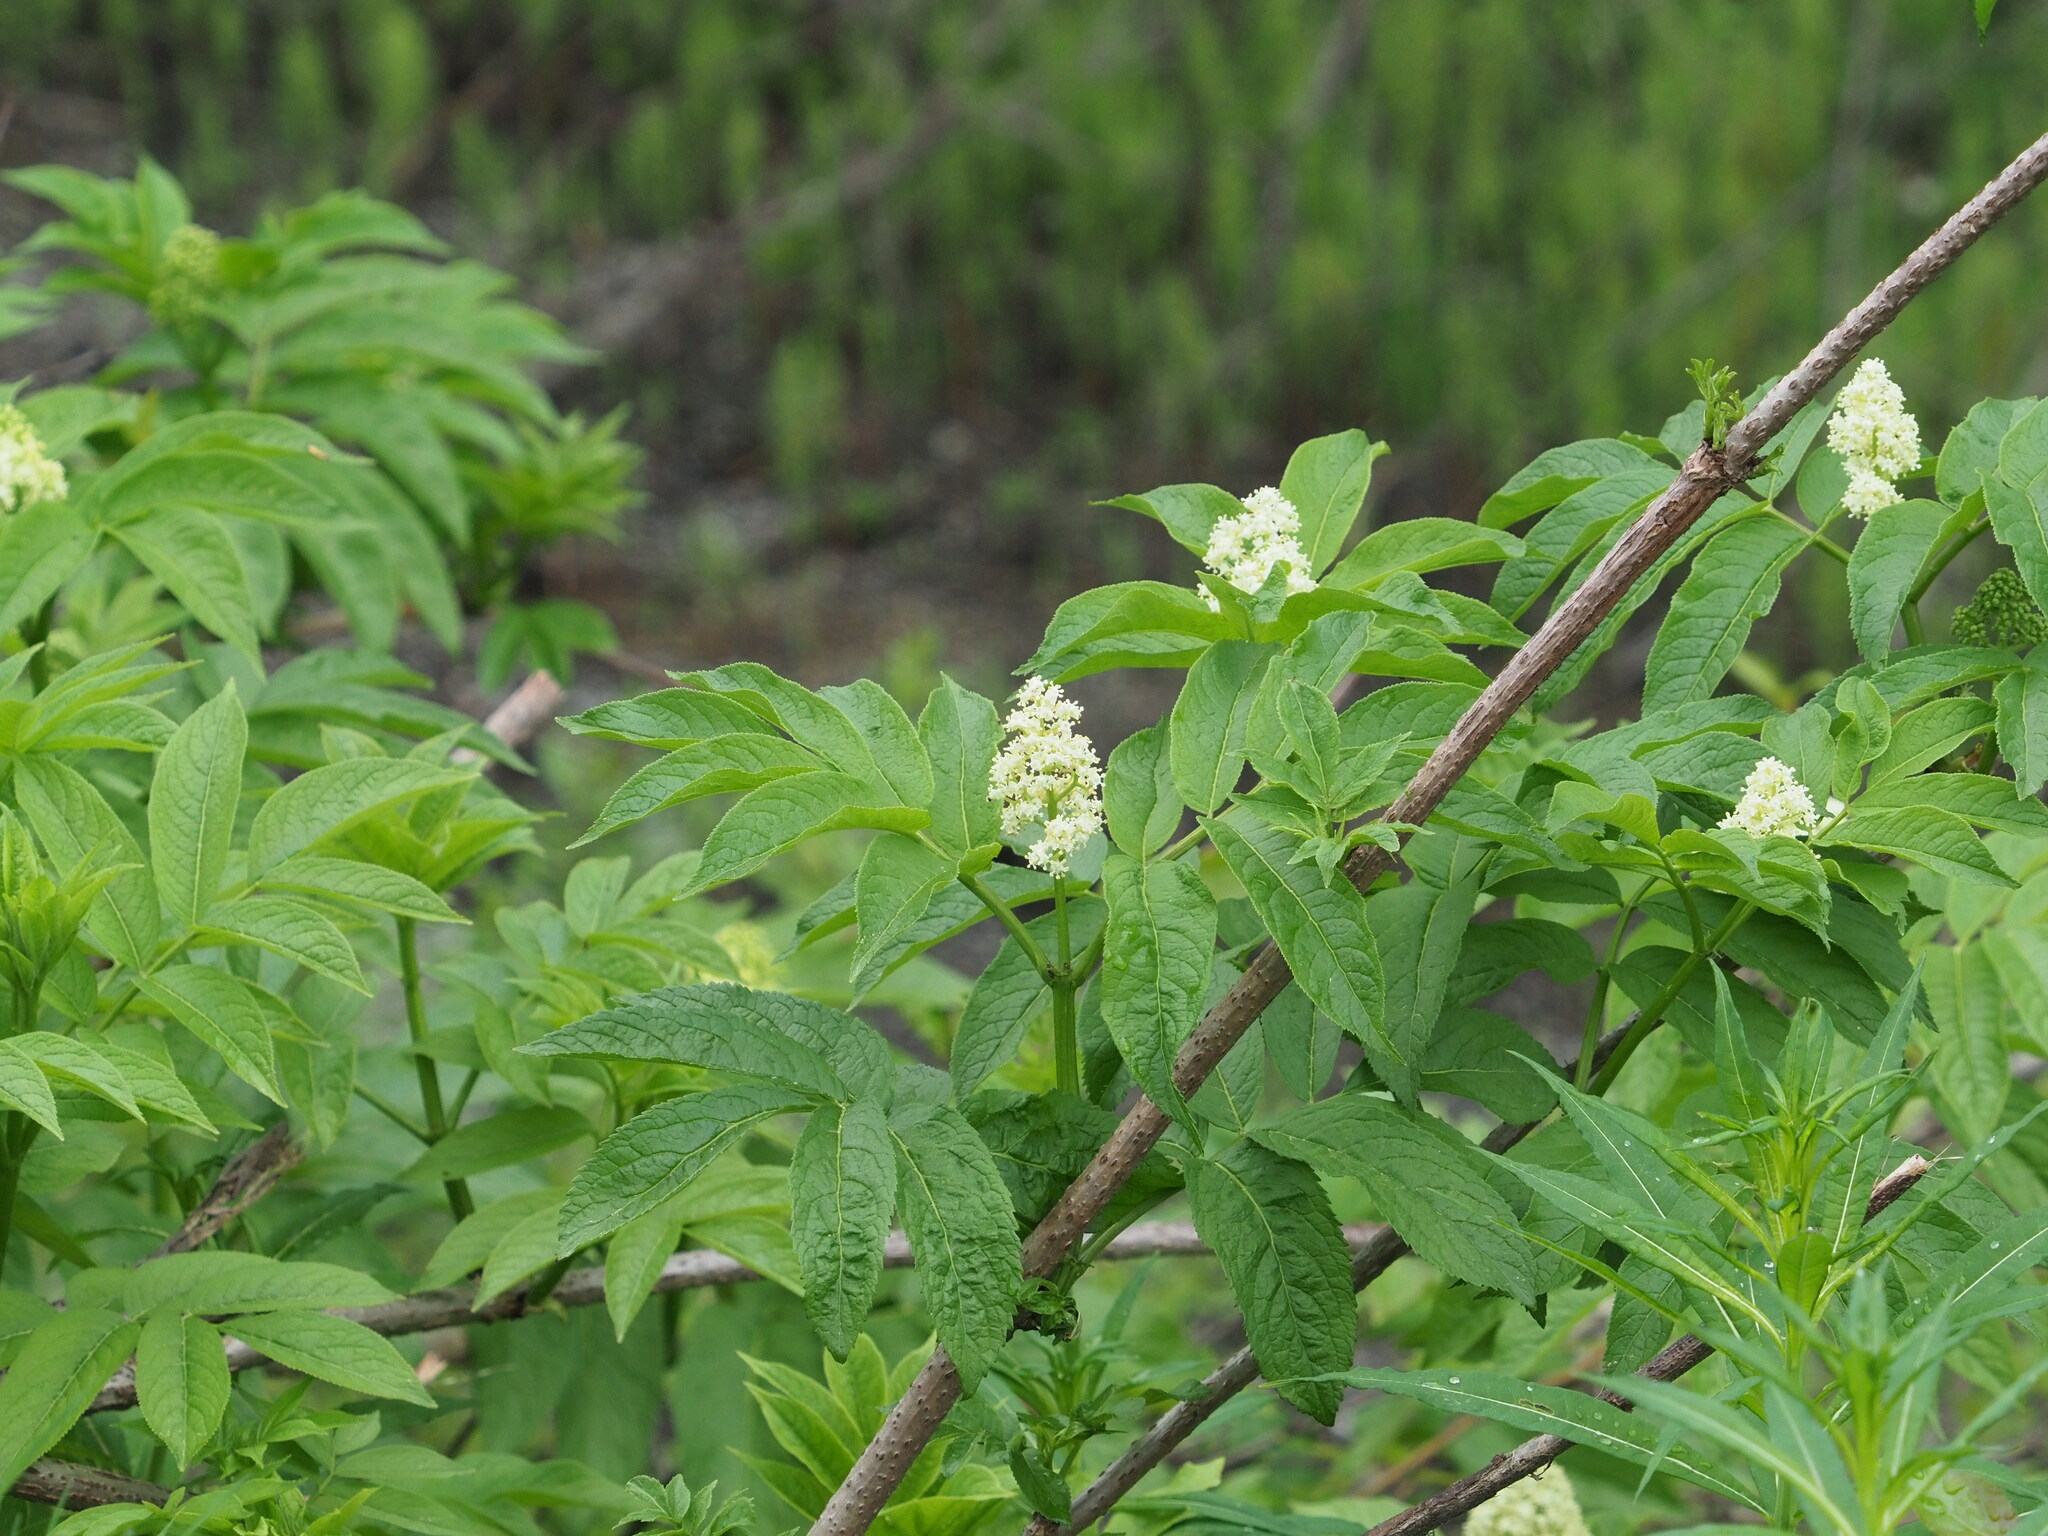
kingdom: Plantae
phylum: Tracheophyta
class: Magnoliopsida
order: Dipsacales
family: Viburnaceae
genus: Sambucus
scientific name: Sambucus racemosa
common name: Red-berried elder
